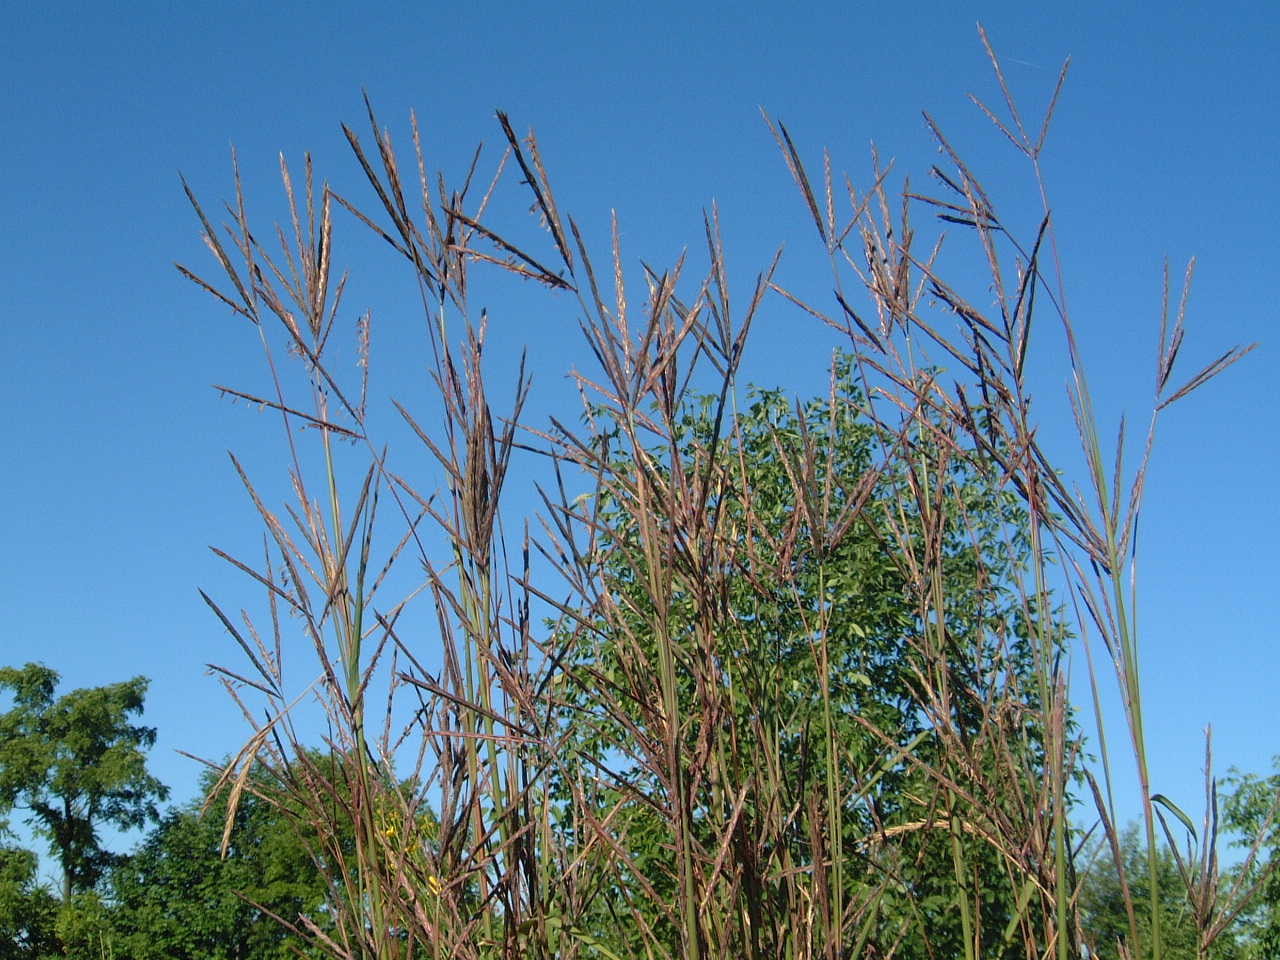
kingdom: Plantae
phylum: Tracheophyta
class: Liliopsida
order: Poales
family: Poaceae
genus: Andropogon
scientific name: Andropogon gerardi
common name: Big bluestem
